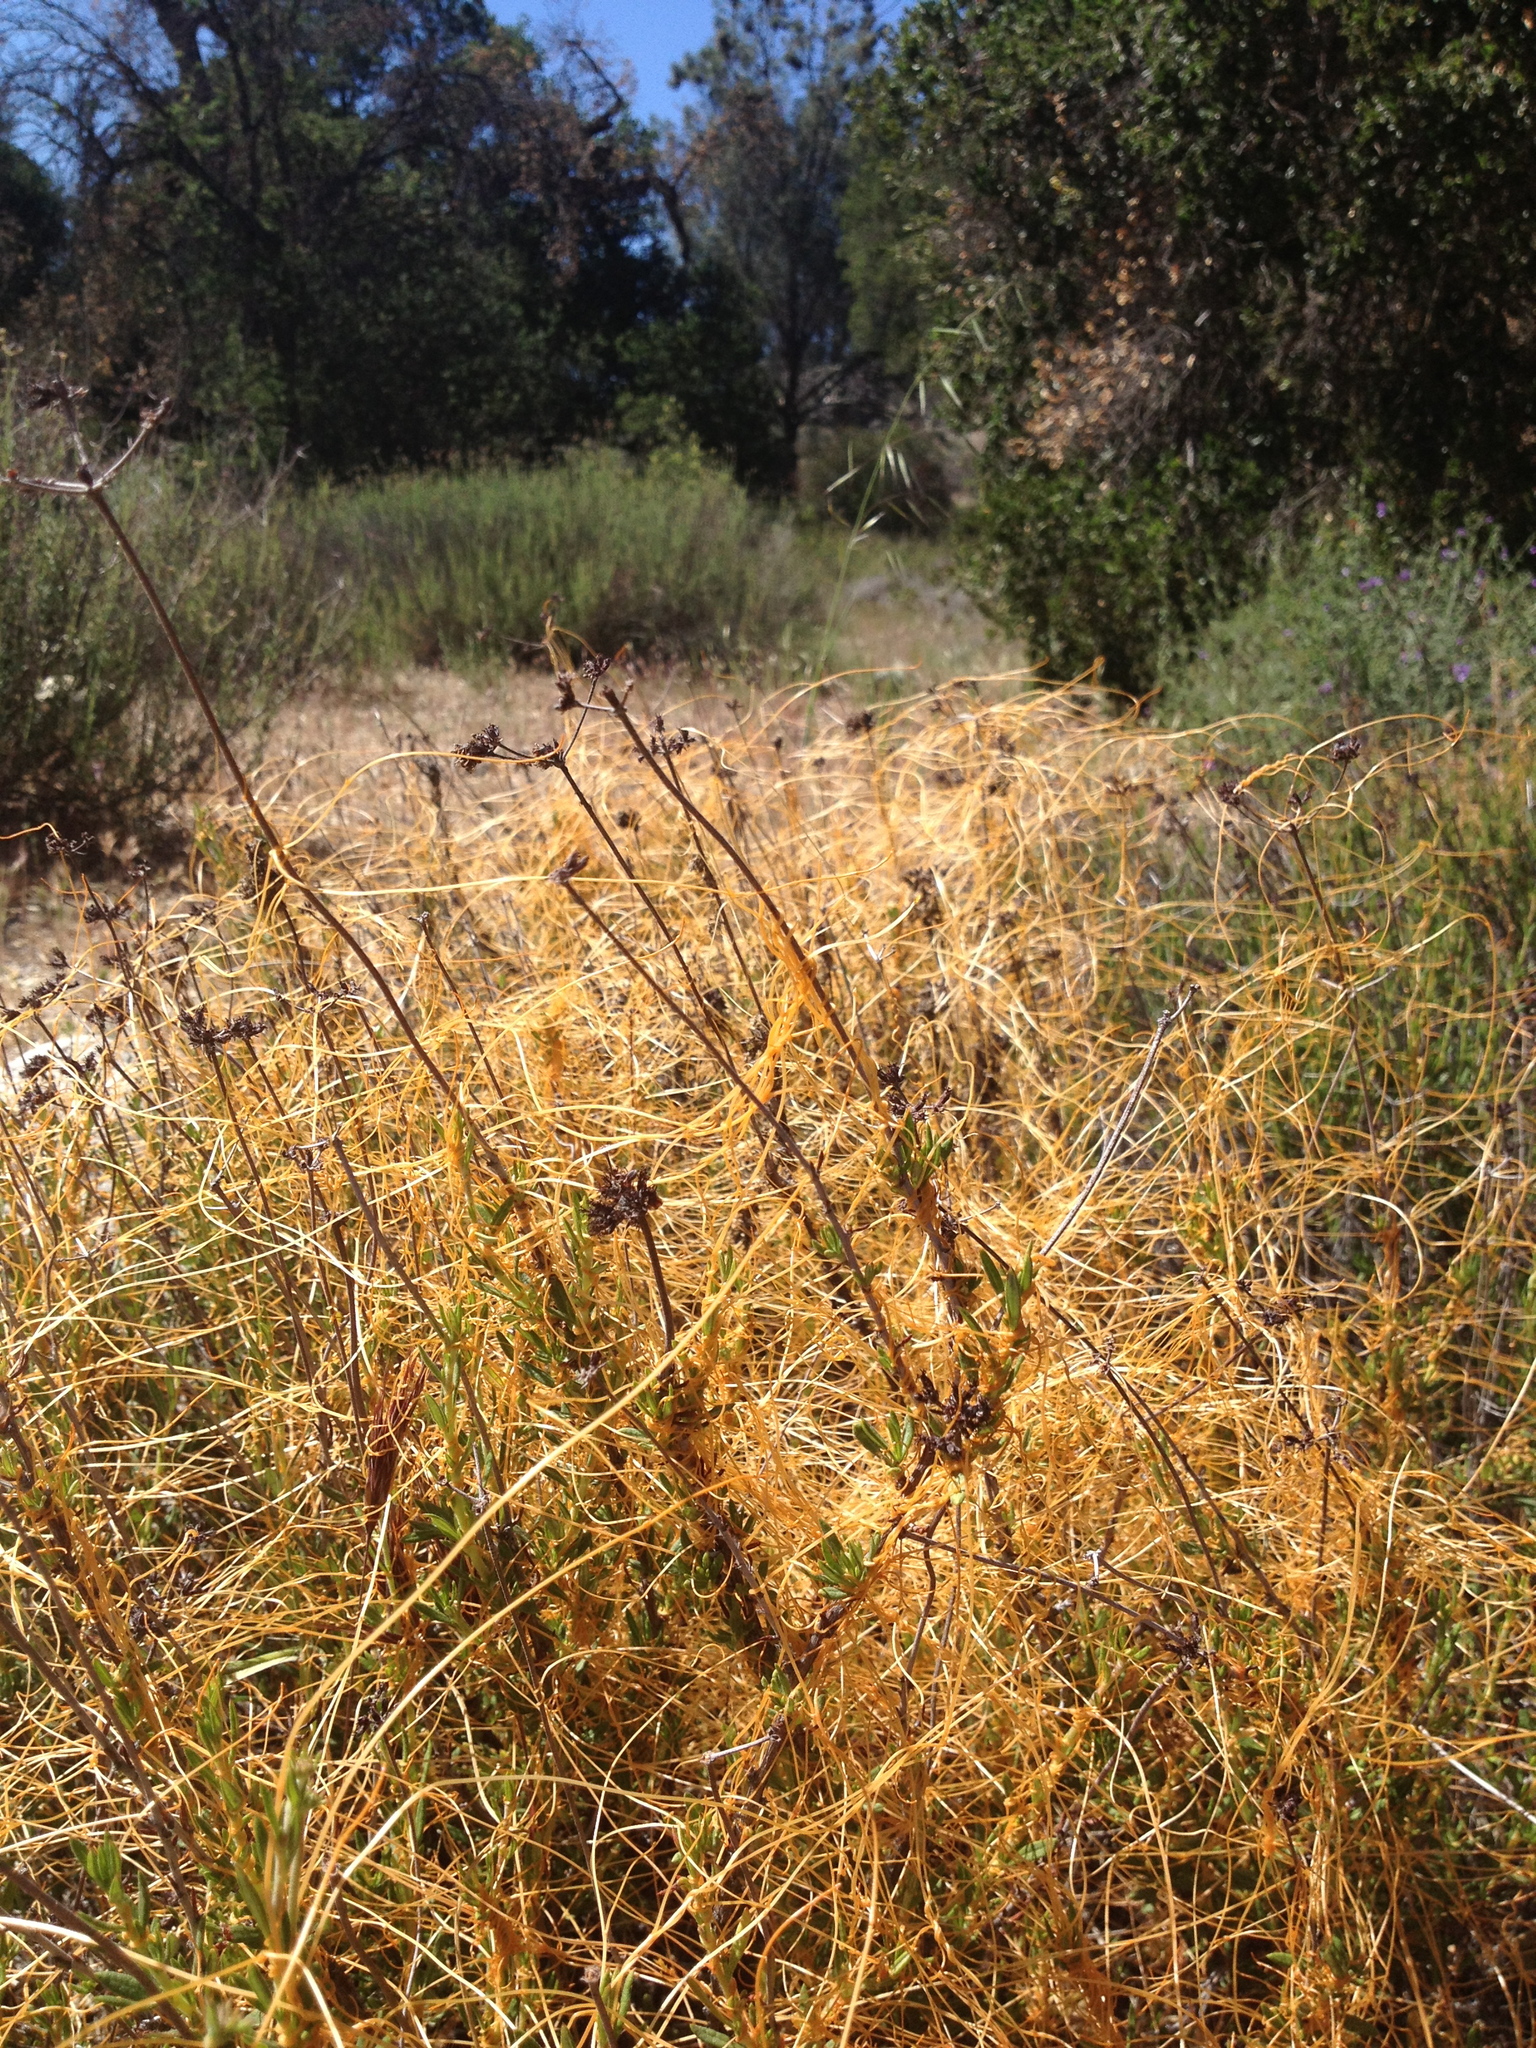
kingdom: Plantae
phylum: Tracheophyta
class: Magnoliopsida
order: Solanales
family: Convolvulaceae
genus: Cuscuta
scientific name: Cuscuta californica
